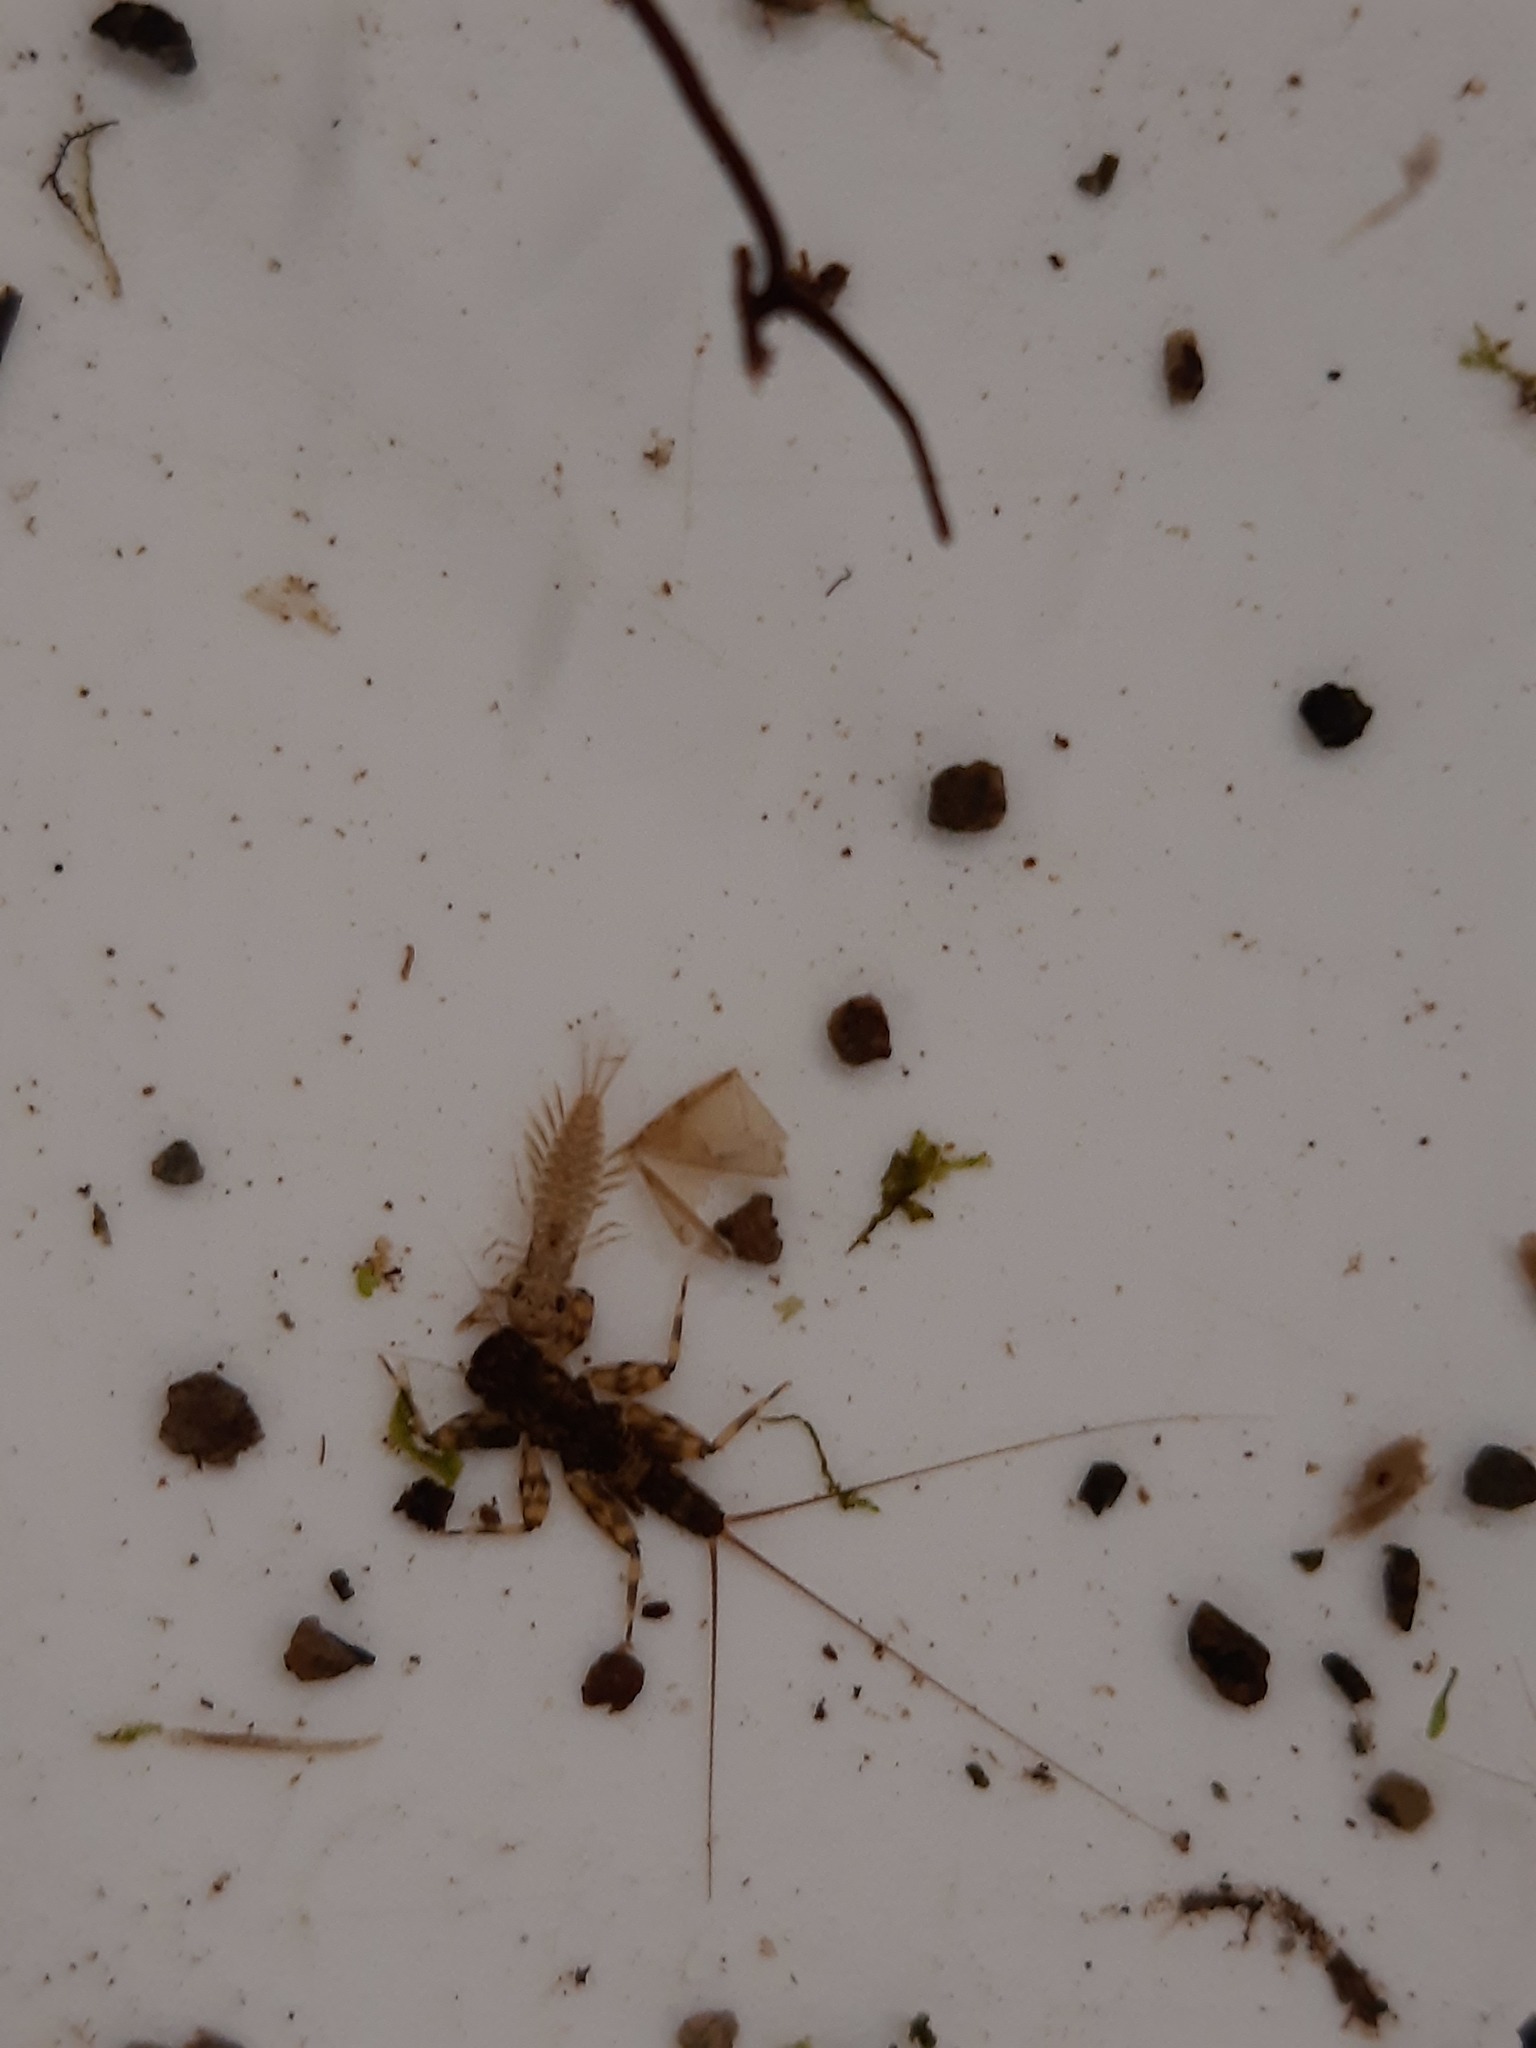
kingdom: Animalia
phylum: Arthropoda
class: Insecta
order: Ephemeroptera
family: Ameletopsidae
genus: Ameletopsis
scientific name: Ameletopsis perscitus
